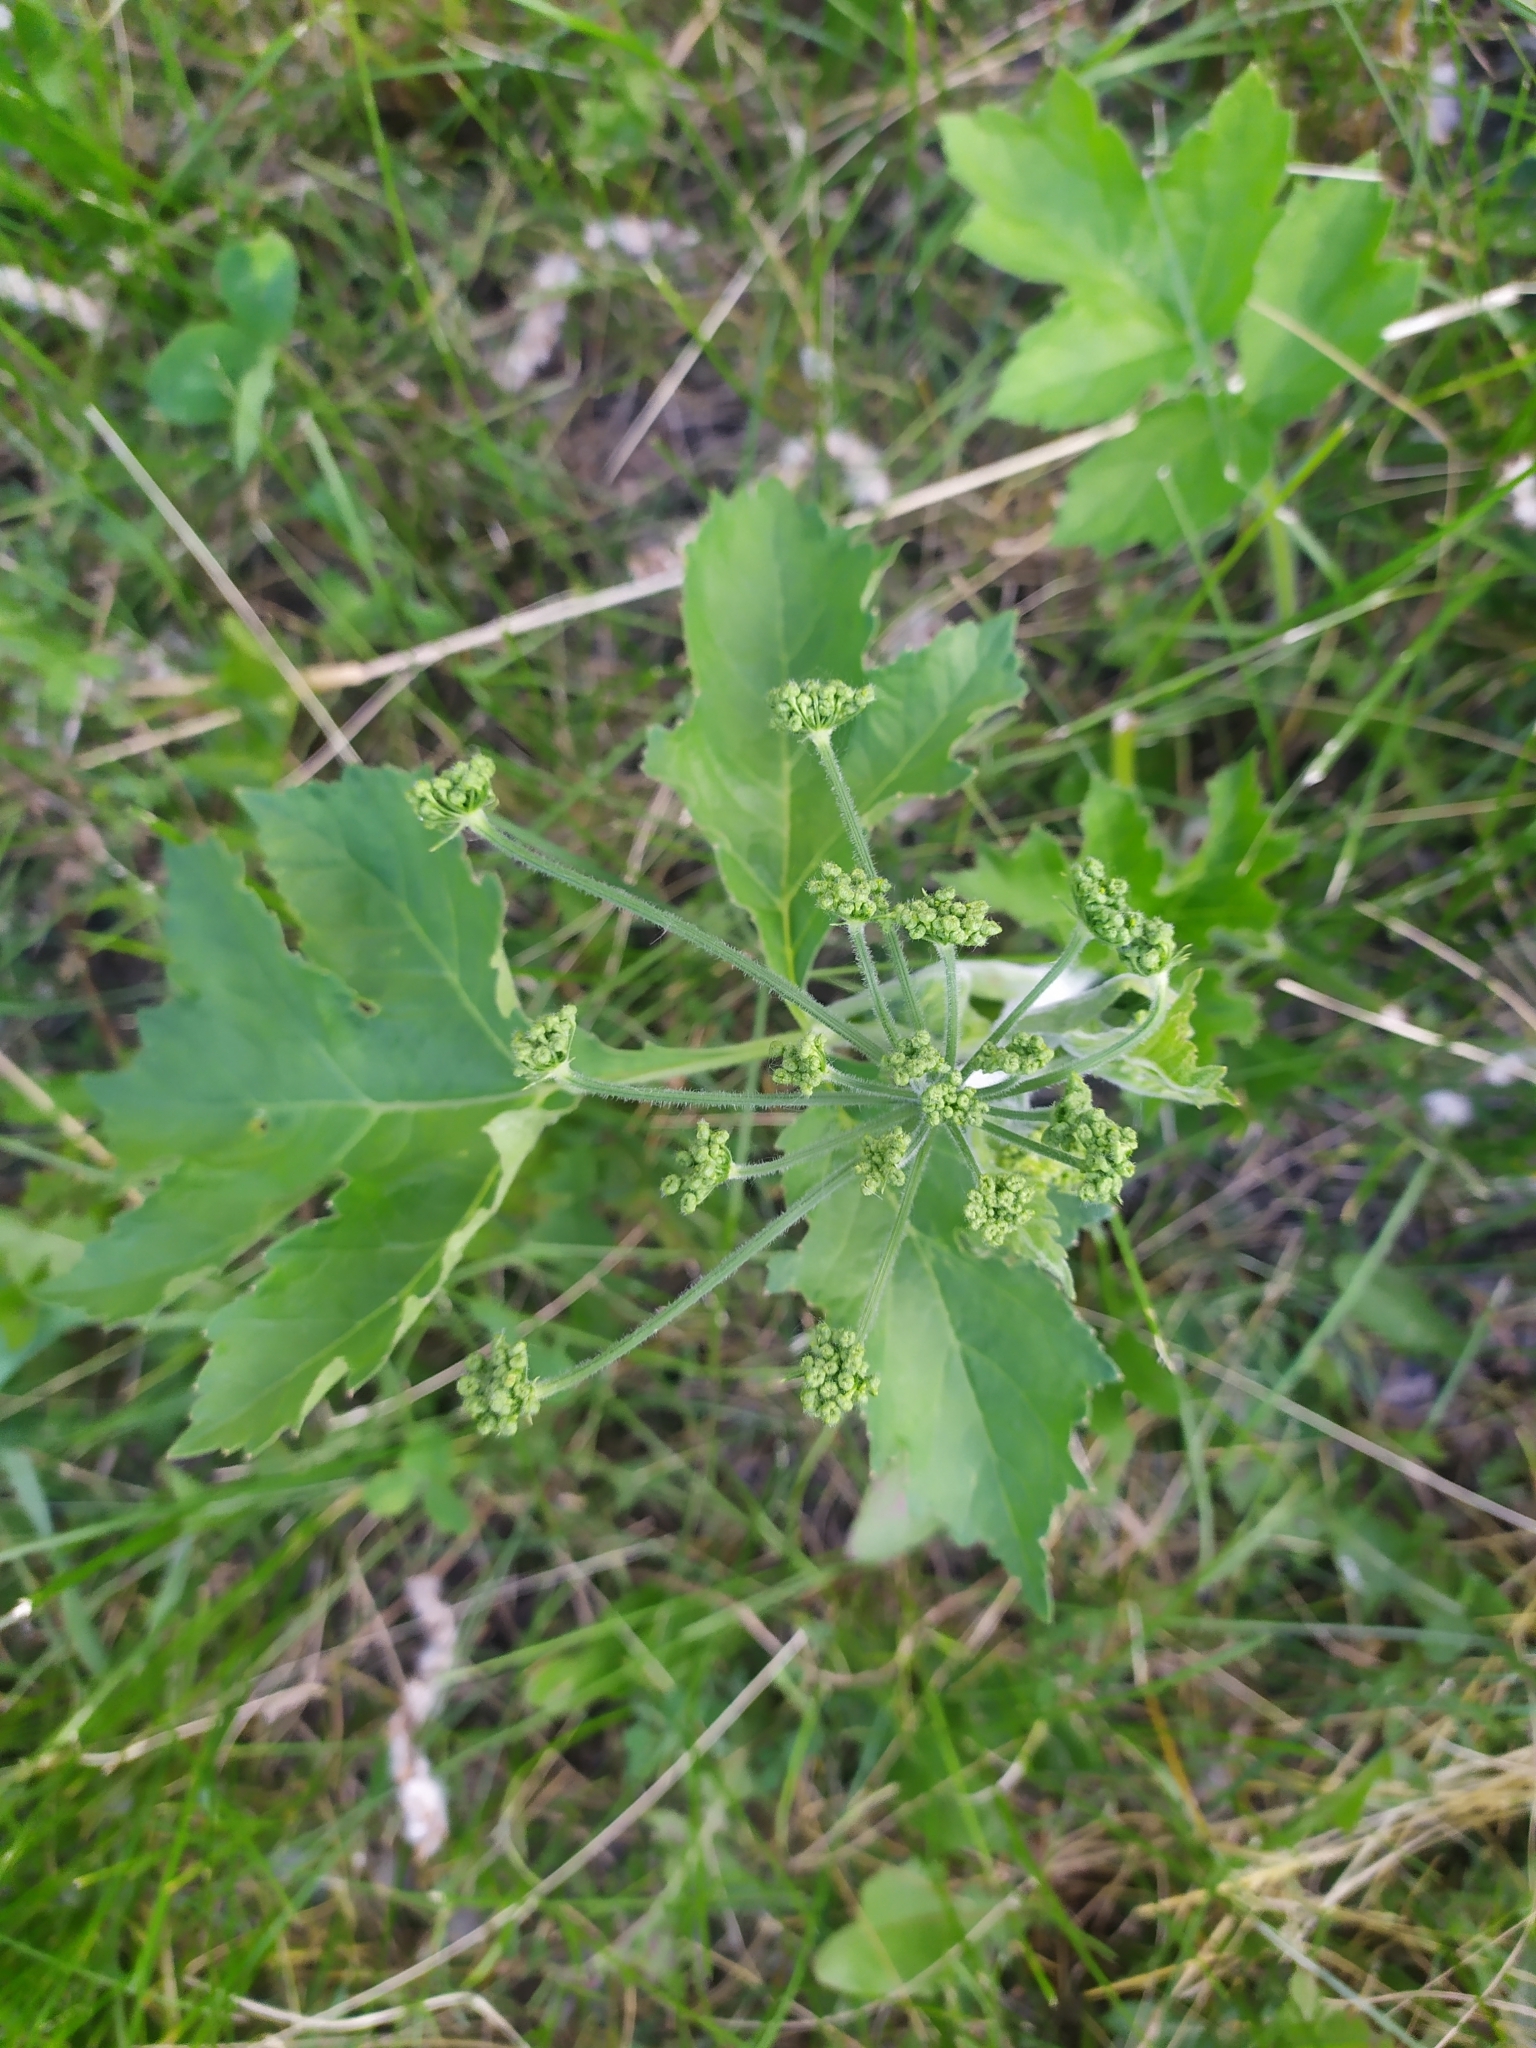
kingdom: Plantae
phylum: Tracheophyta
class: Magnoliopsida
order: Apiales
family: Apiaceae
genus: Heracleum
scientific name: Heracleum sphondylium
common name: Hogweed
